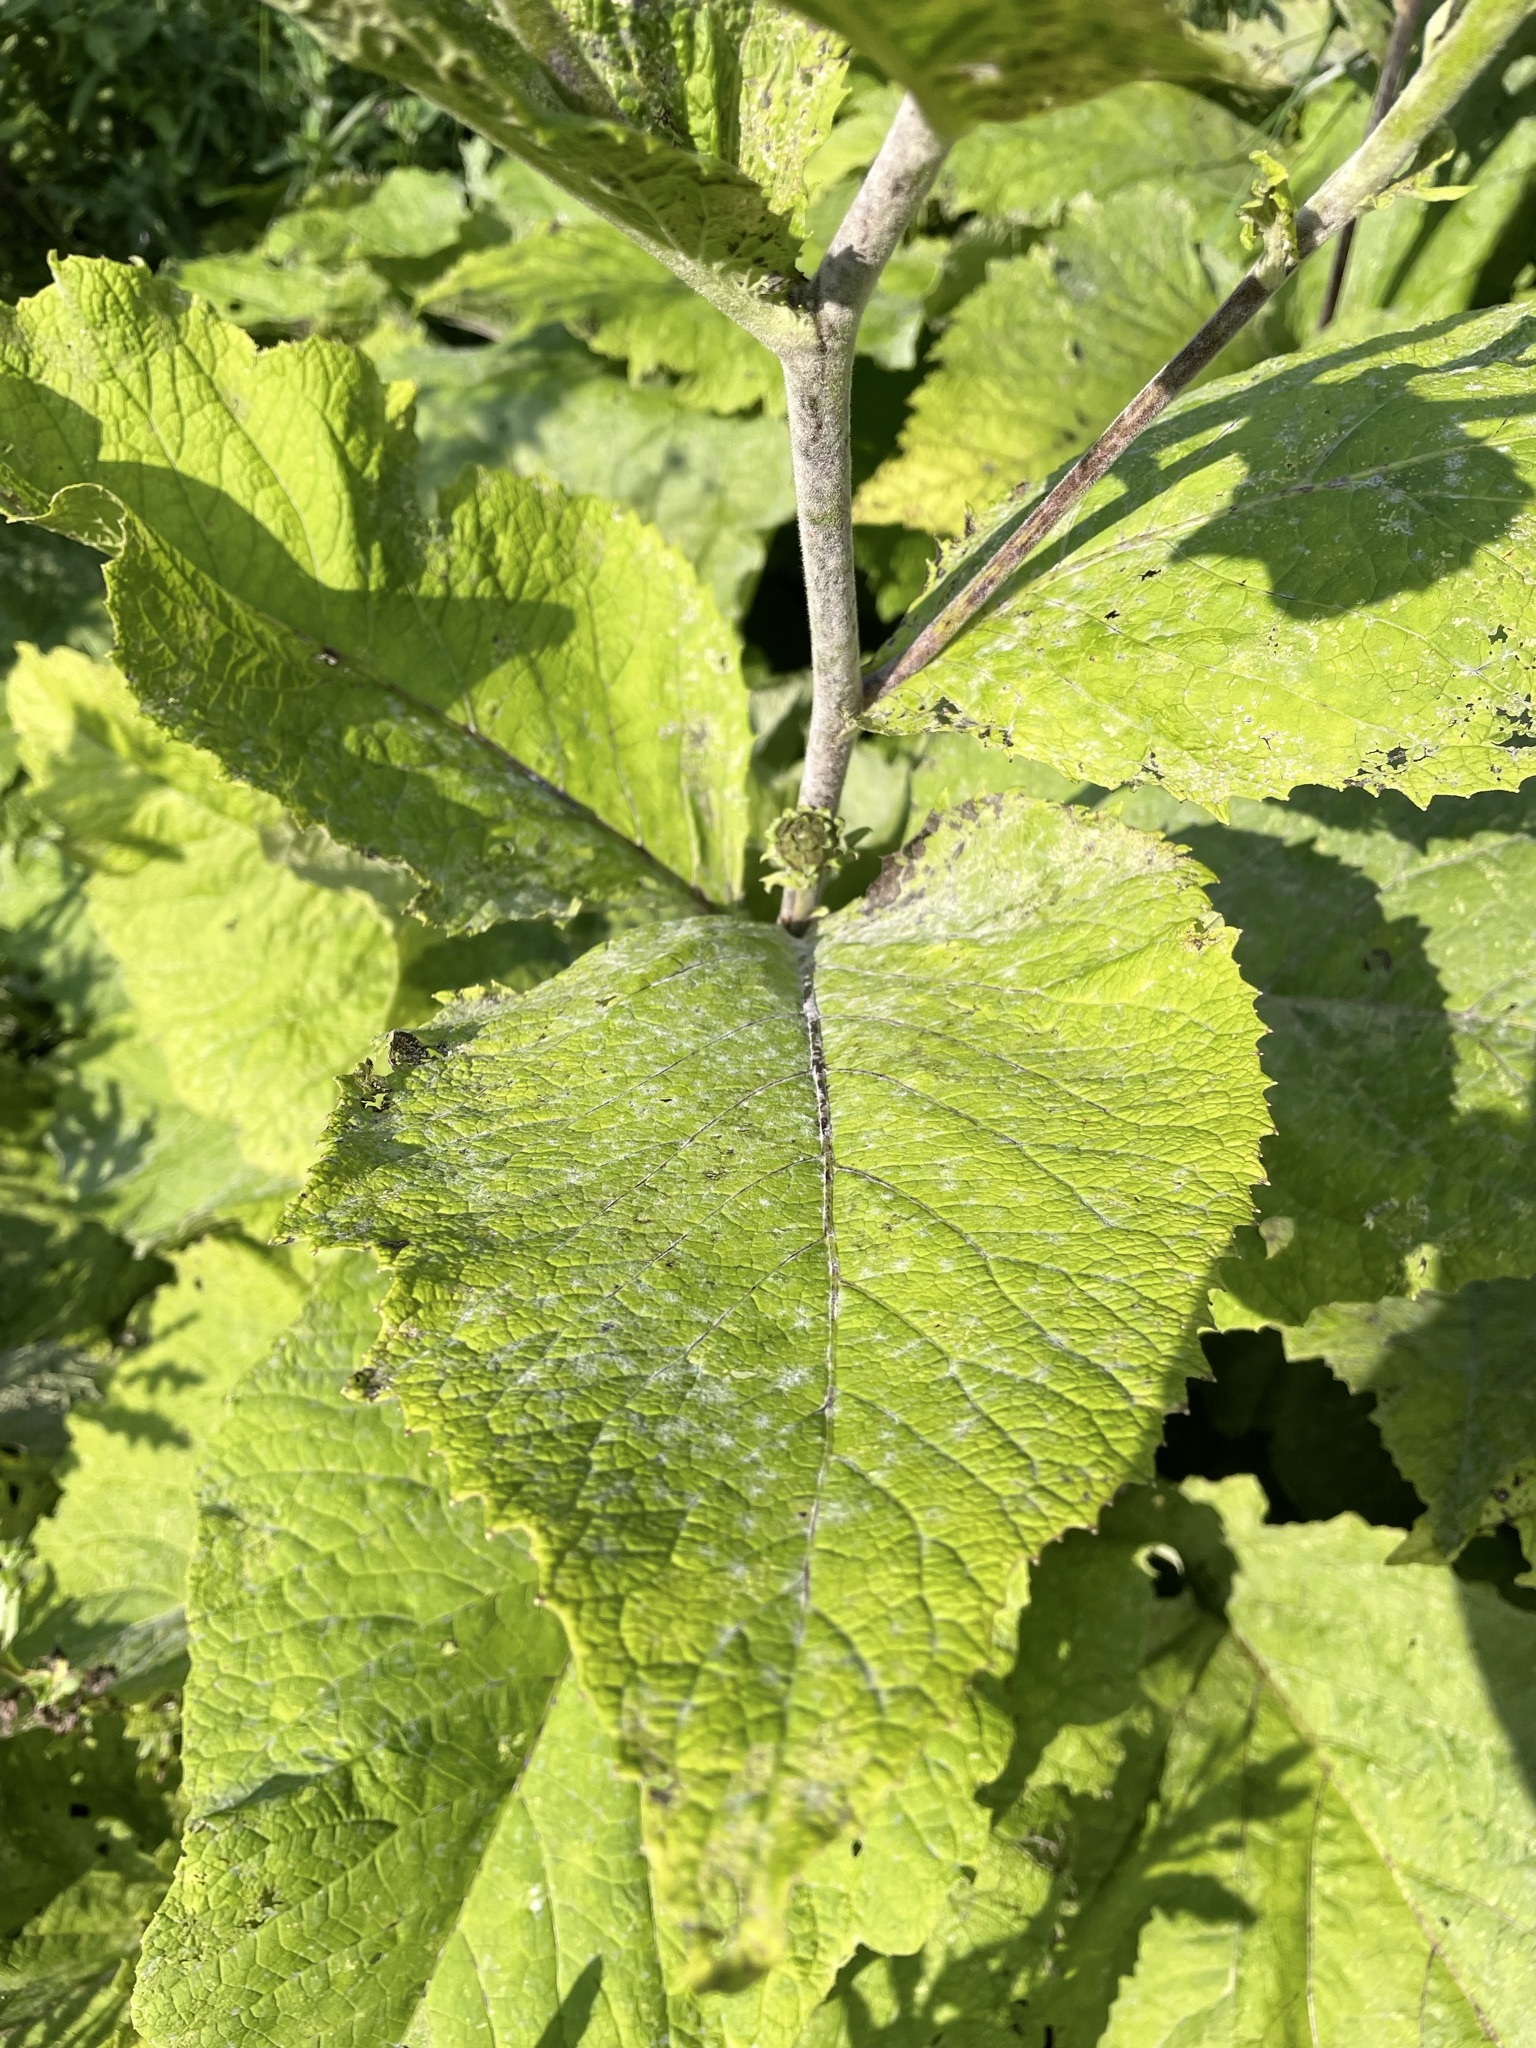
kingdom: Plantae
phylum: Tracheophyta
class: Magnoliopsida
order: Asterales
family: Asteraceae
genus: Telekia
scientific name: Telekia speciosa
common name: Yellow oxeye
